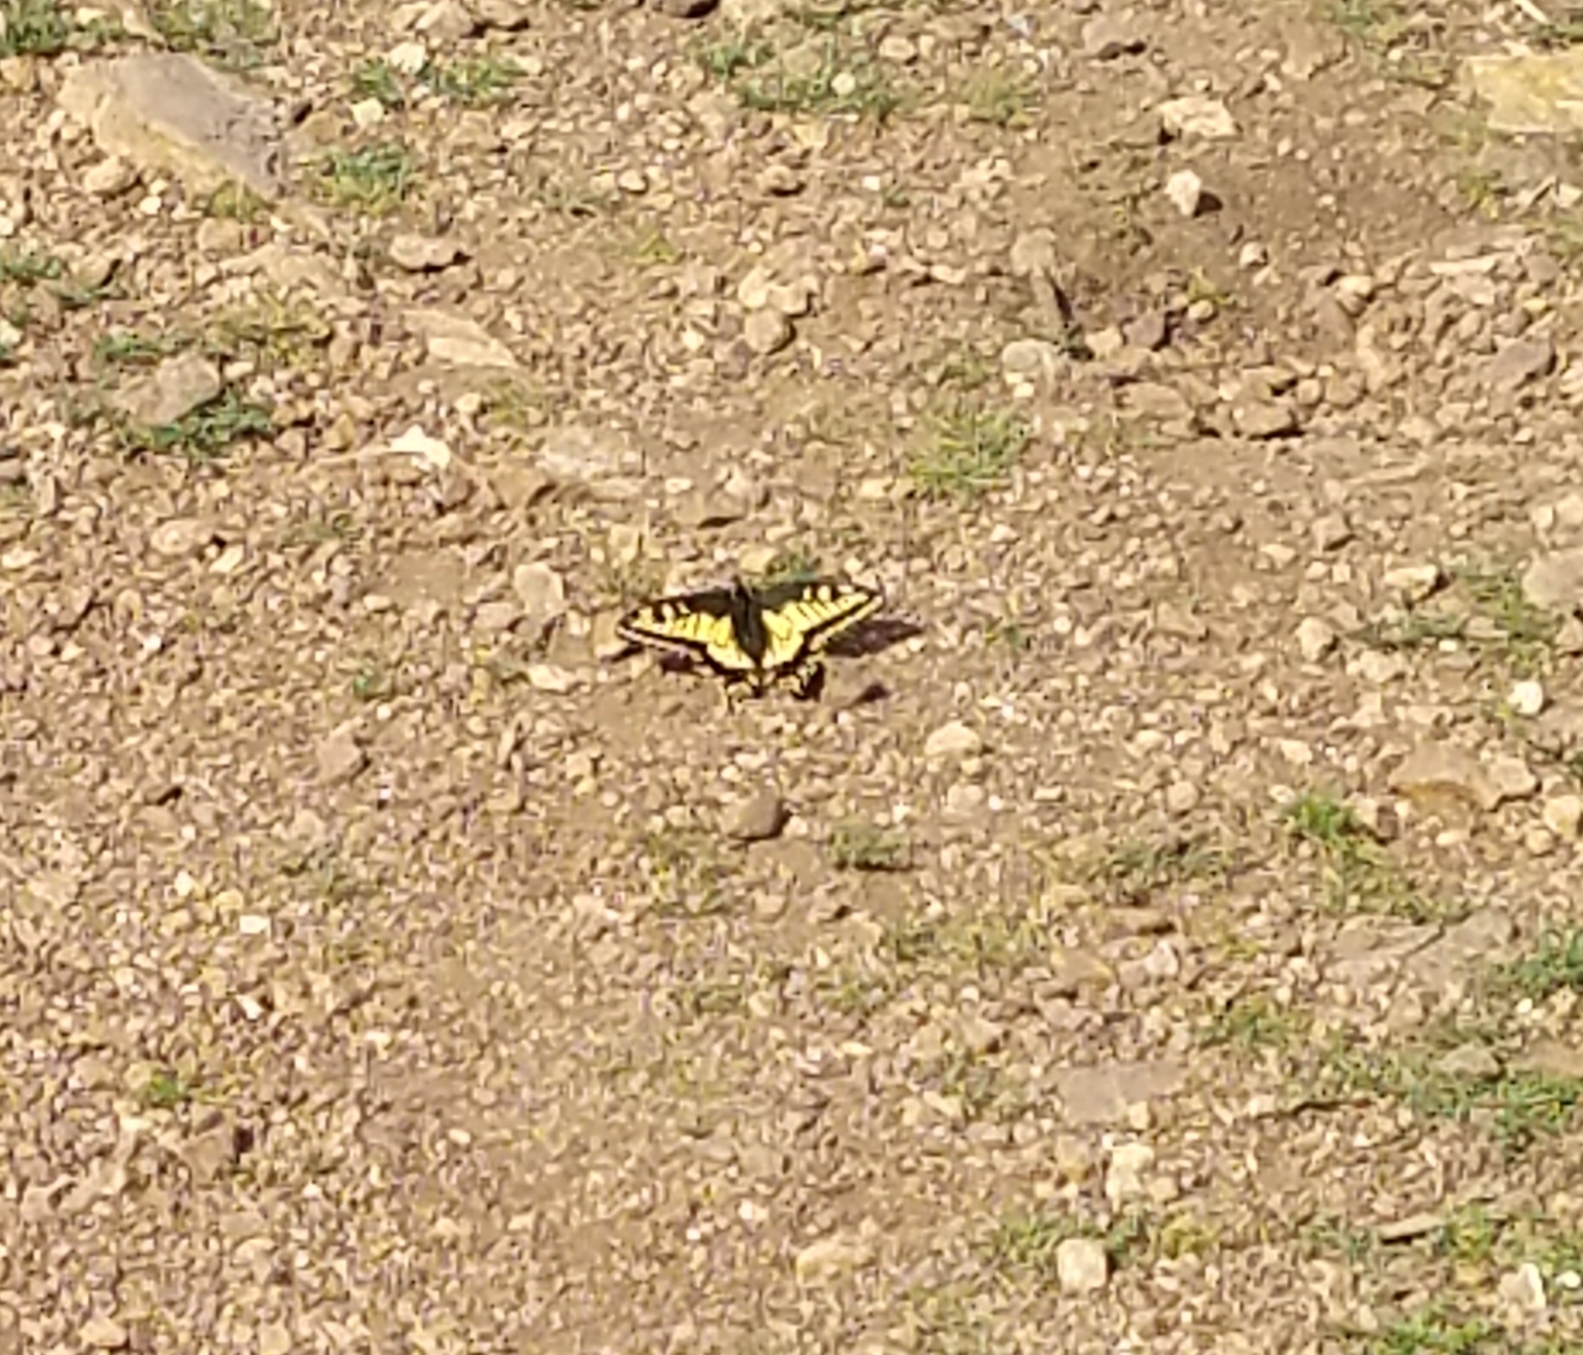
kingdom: Animalia
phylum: Arthropoda
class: Insecta
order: Lepidoptera
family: Papilionidae
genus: Papilio
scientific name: Papilio zelicaon
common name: Anise swallowtail
